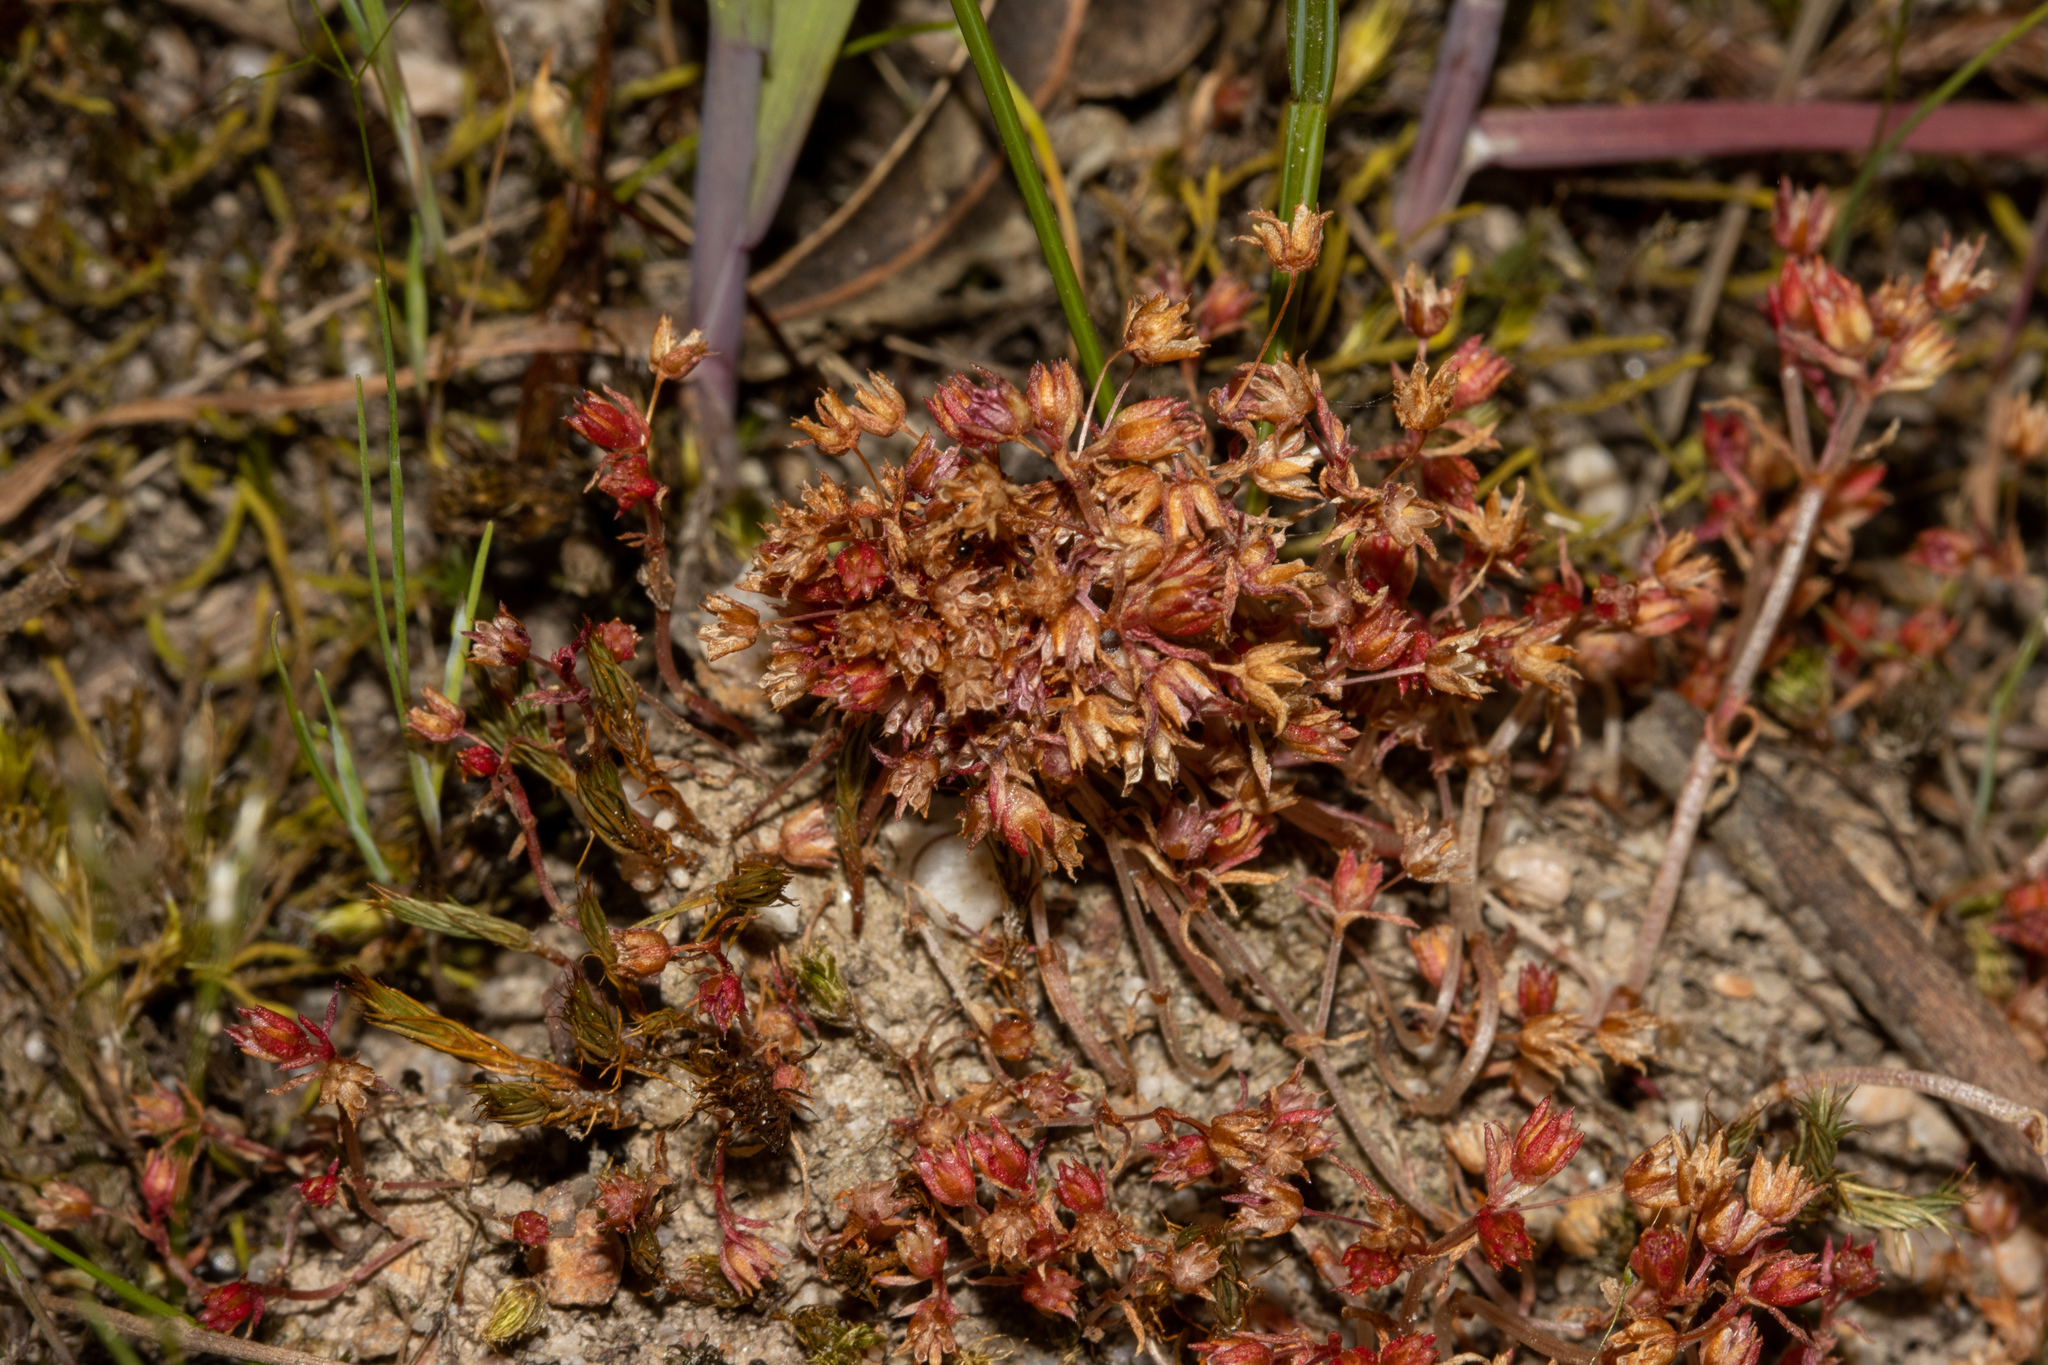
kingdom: Plantae
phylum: Tracheophyta
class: Magnoliopsida
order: Saxifragales
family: Crassulaceae
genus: Crassula
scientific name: Crassula decumbens
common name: Scilly pigmyweed
